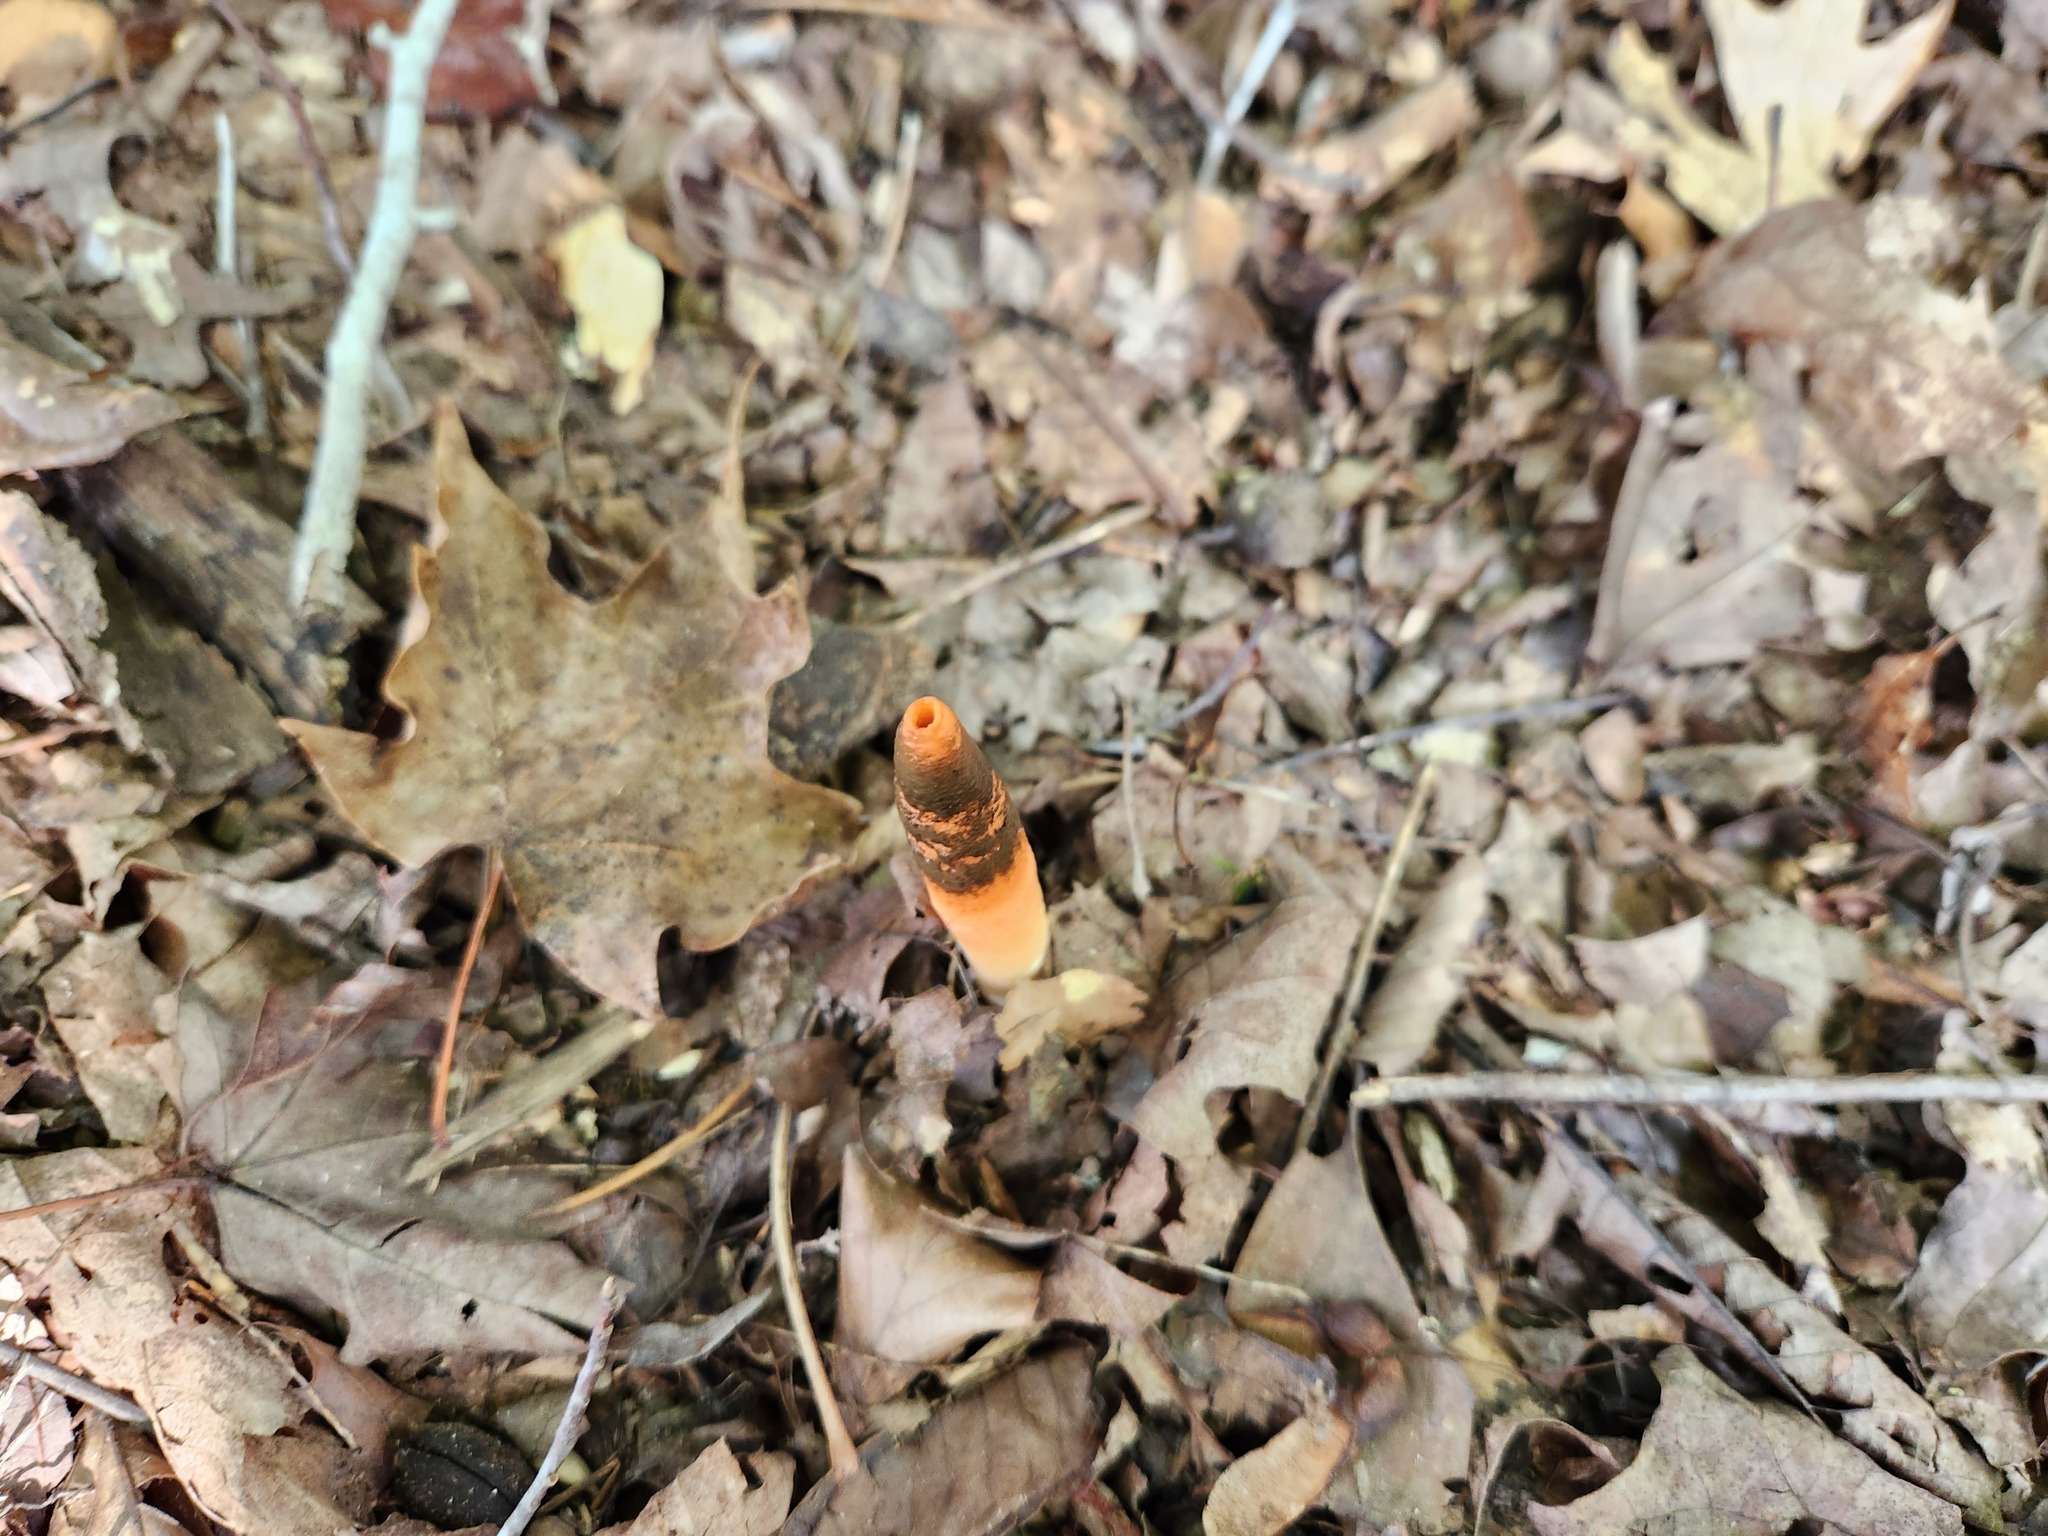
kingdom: Fungi
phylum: Basidiomycota
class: Agaricomycetes
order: Phallales
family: Phallaceae
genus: Mutinus
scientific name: Mutinus elegans
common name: Devil's dipstick
